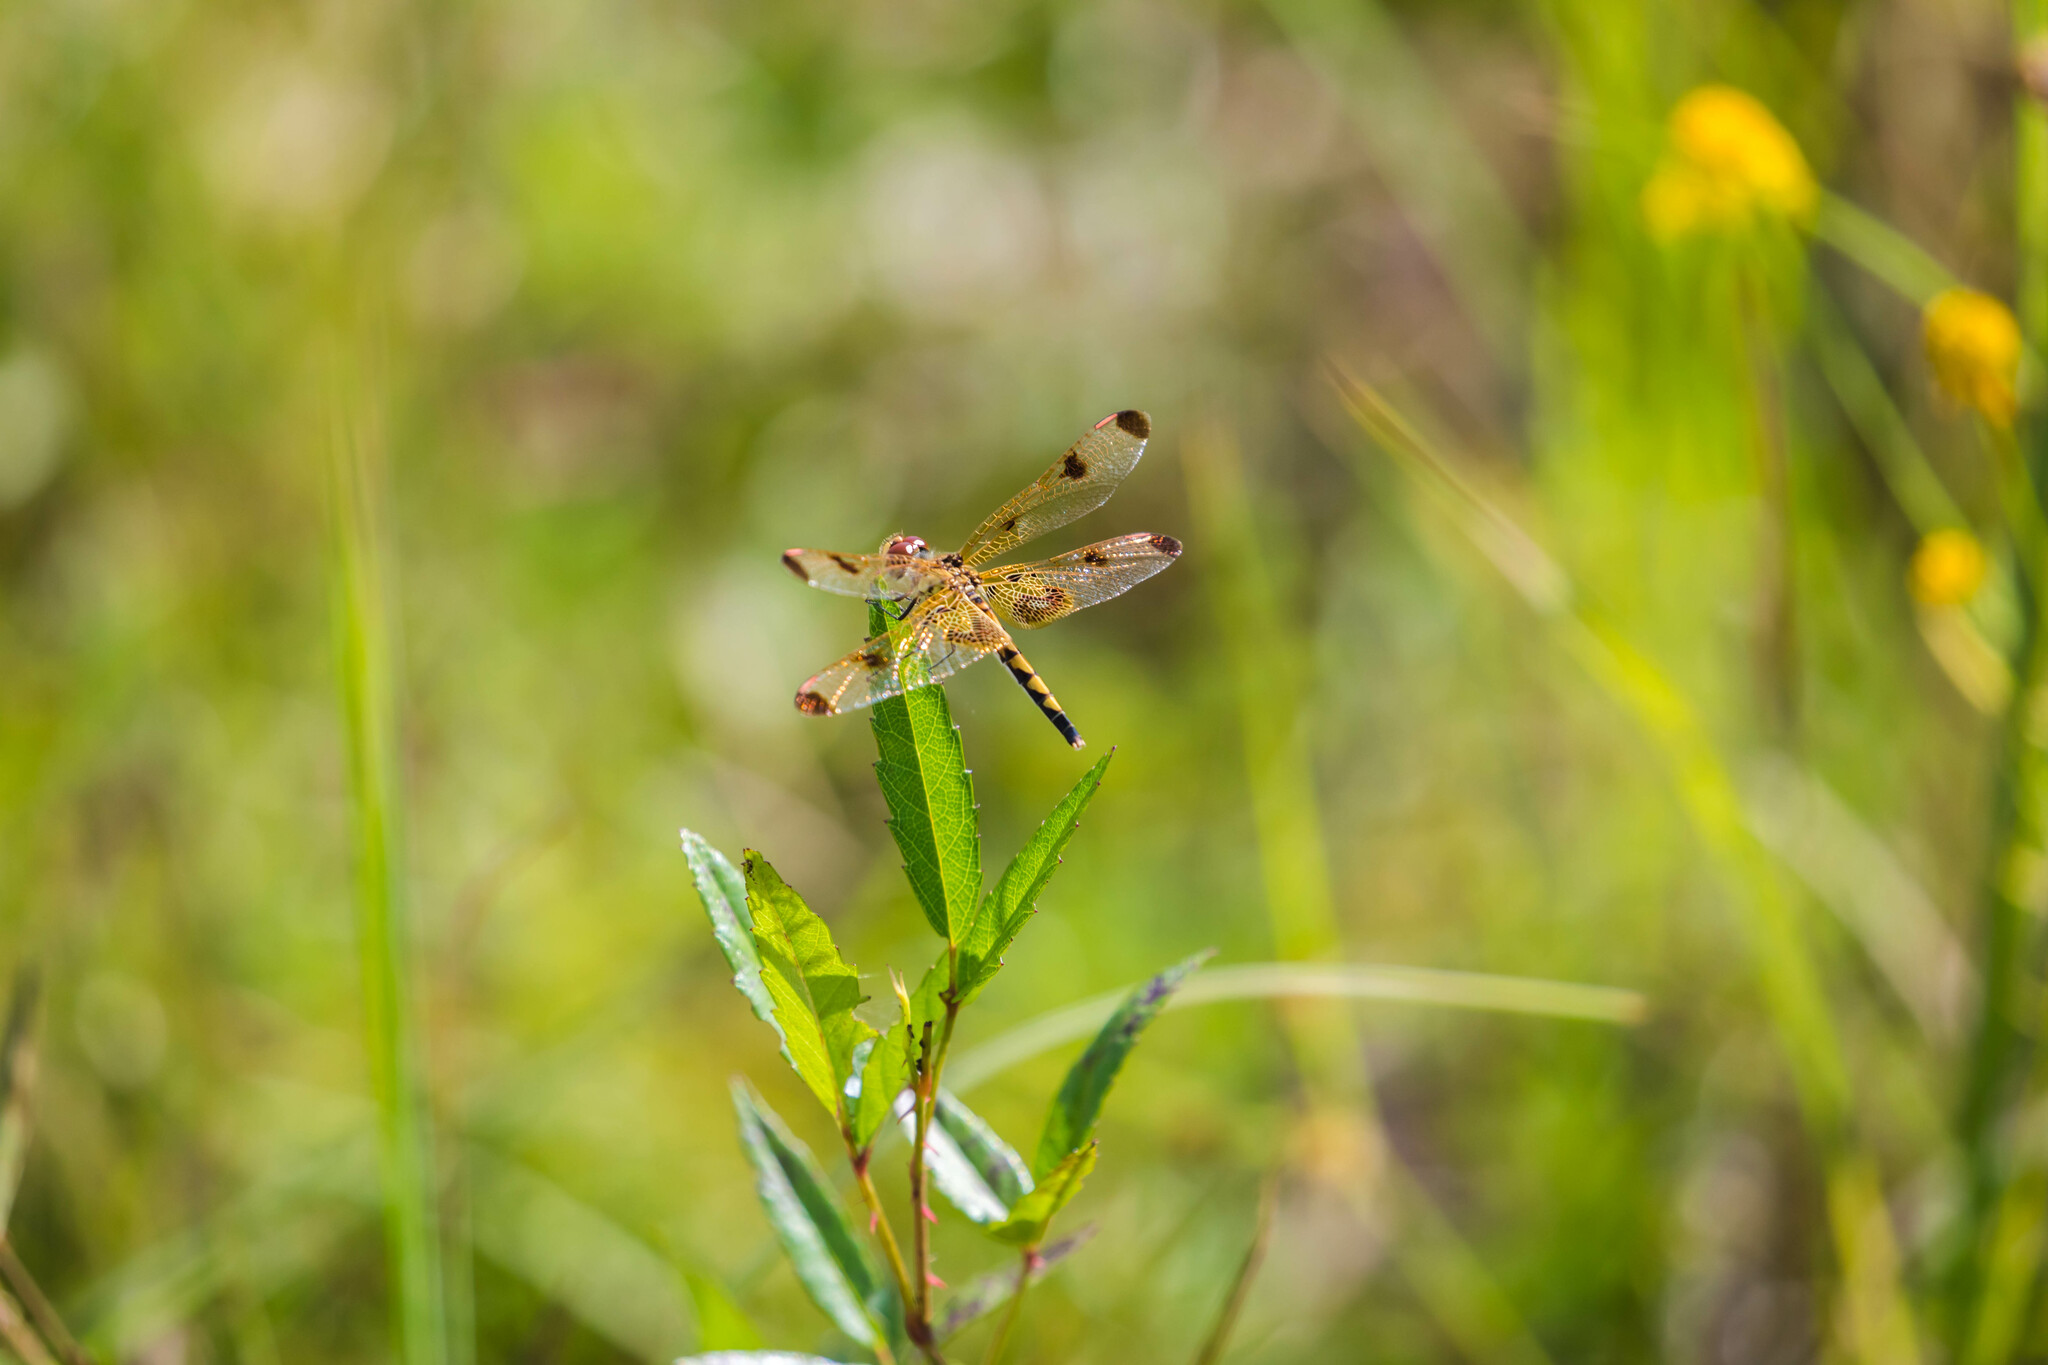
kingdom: Animalia
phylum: Arthropoda
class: Insecta
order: Odonata
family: Libellulidae
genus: Celithemis
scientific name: Celithemis elisa
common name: Calico pennant
